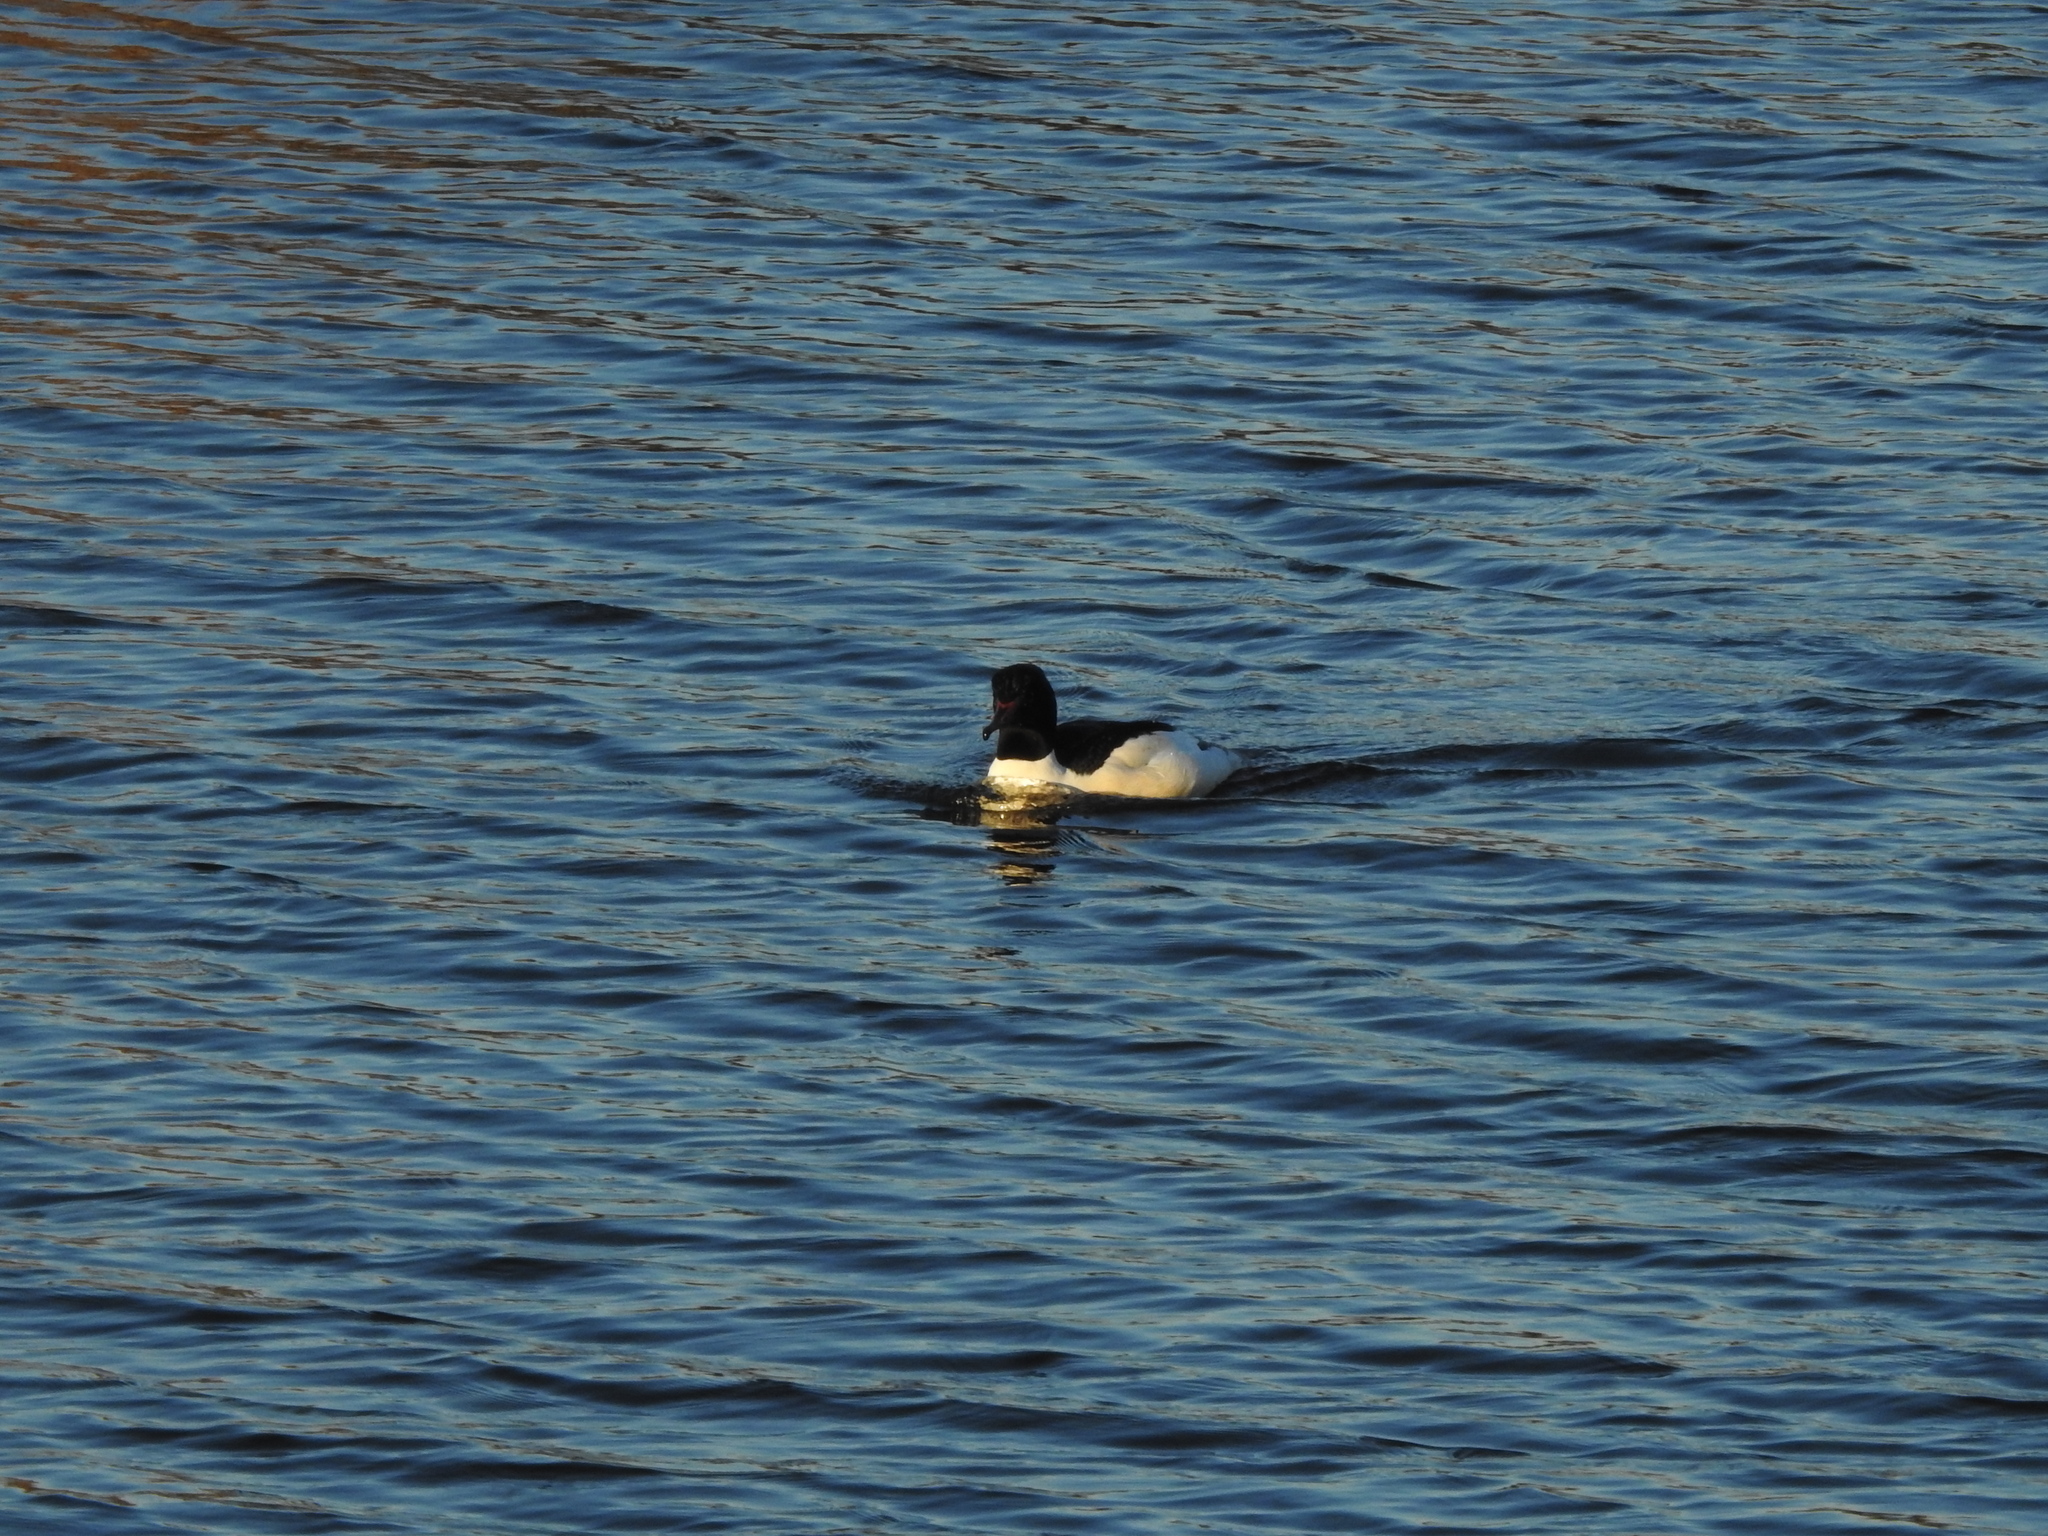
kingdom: Animalia
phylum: Chordata
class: Aves
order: Anseriformes
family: Anatidae
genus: Mergus
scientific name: Mergus merganser
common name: Common merganser
